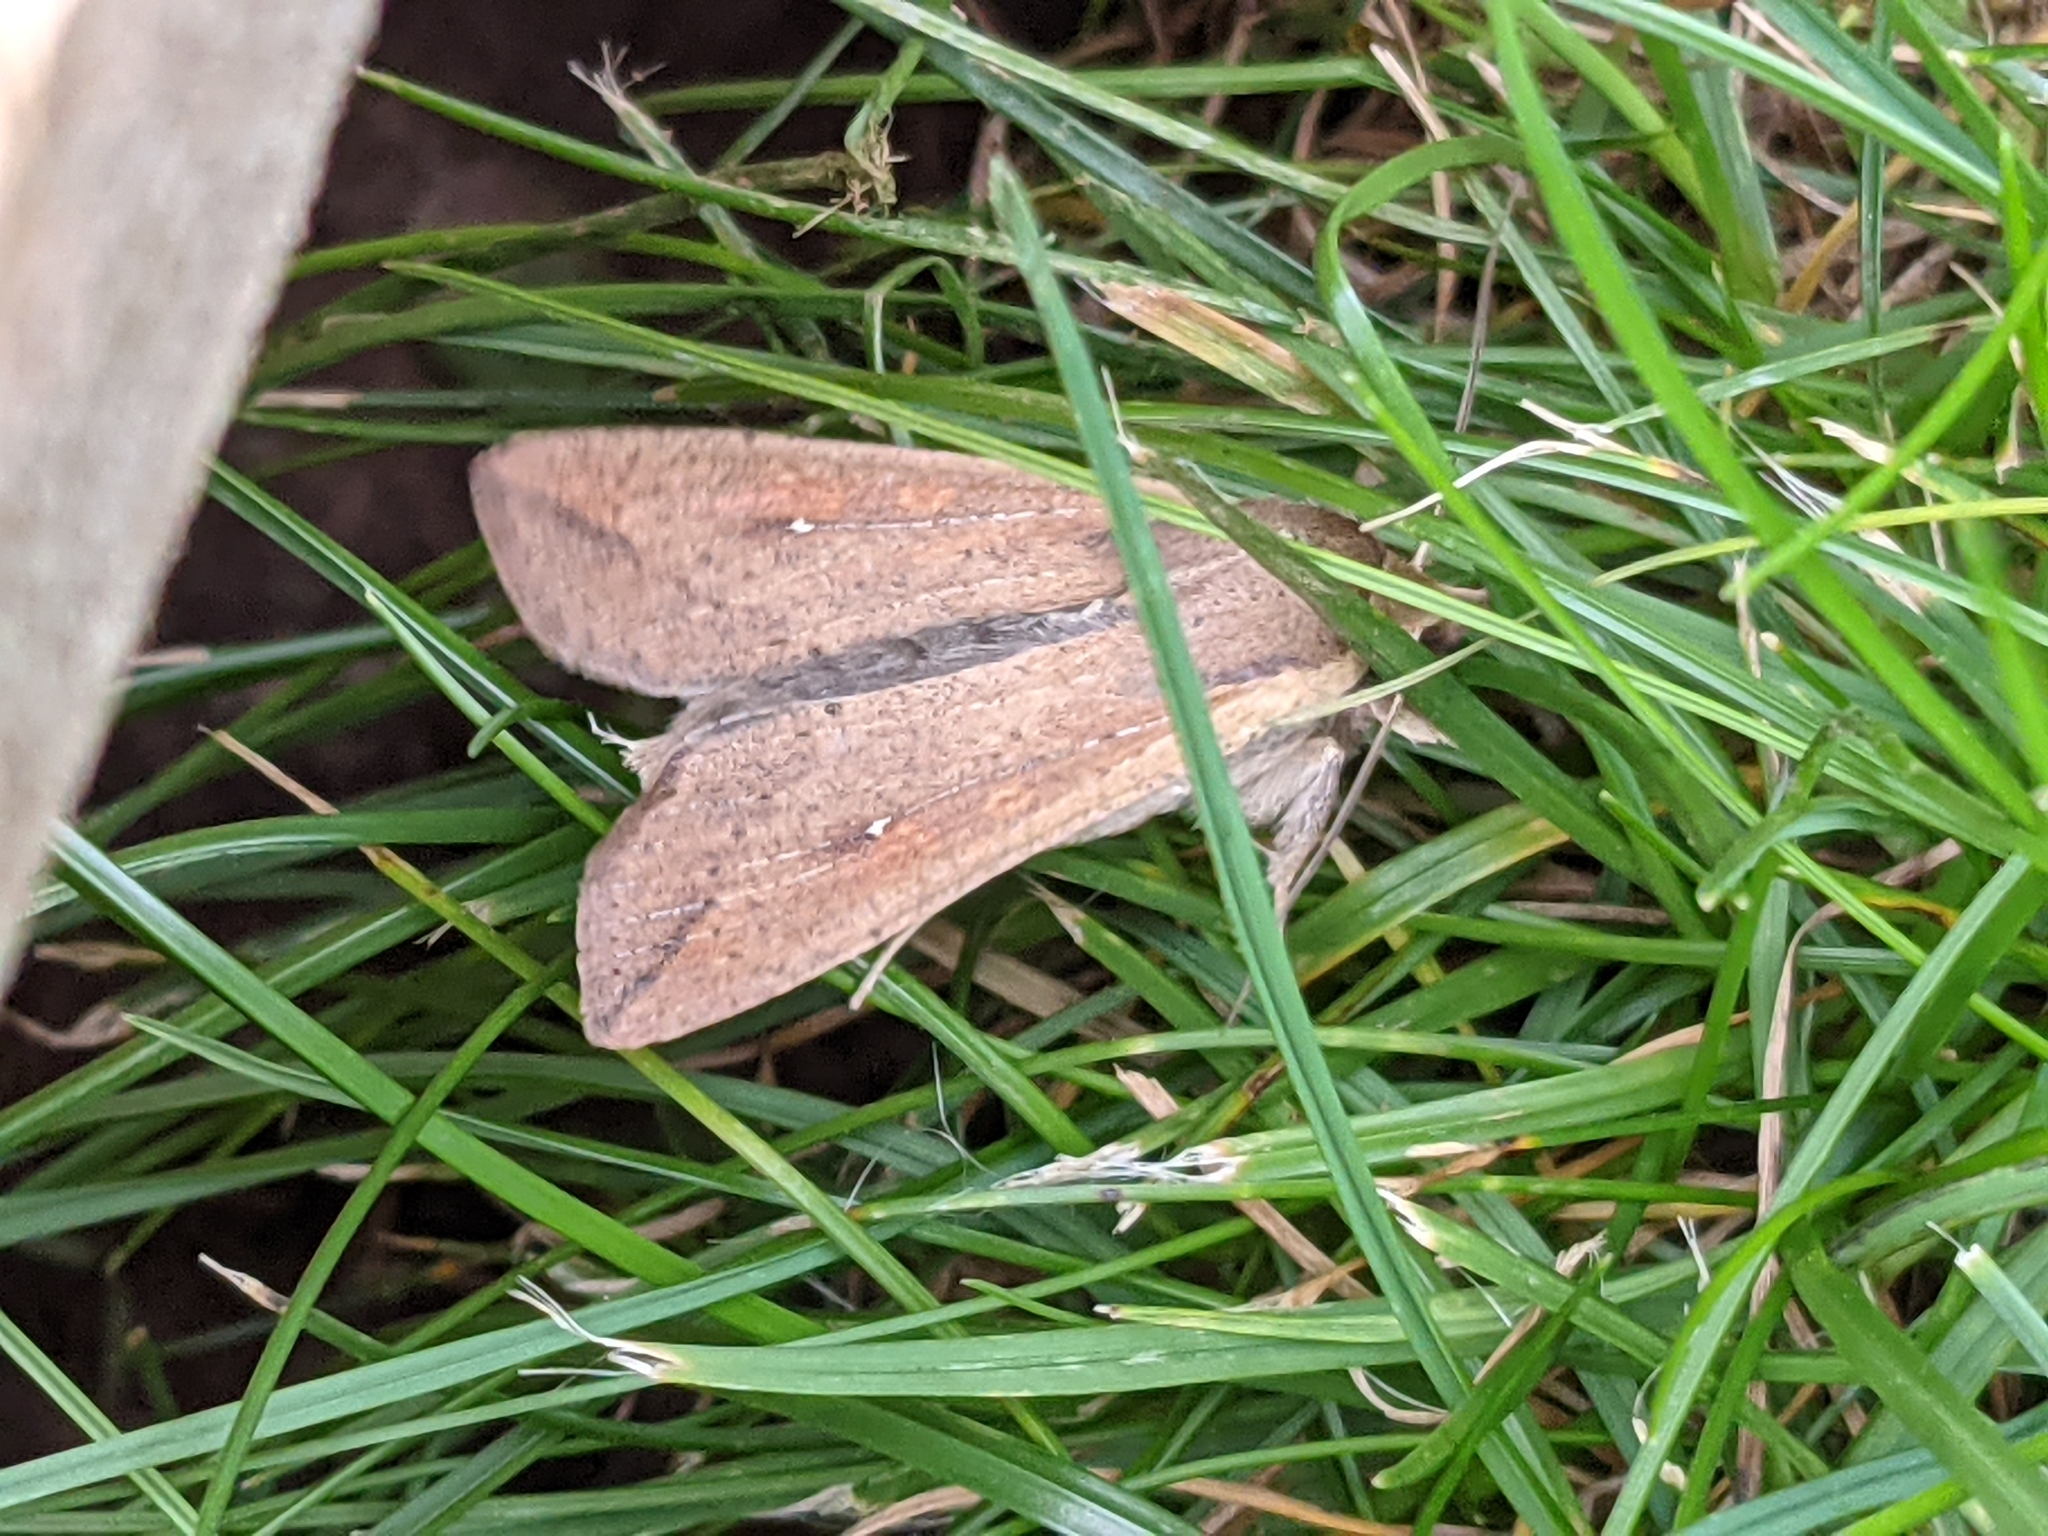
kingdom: Animalia
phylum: Arthropoda
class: Insecta
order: Lepidoptera
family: Noctuidae
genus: Mythimna
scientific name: Mythimna unipuncta
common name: White-speck
